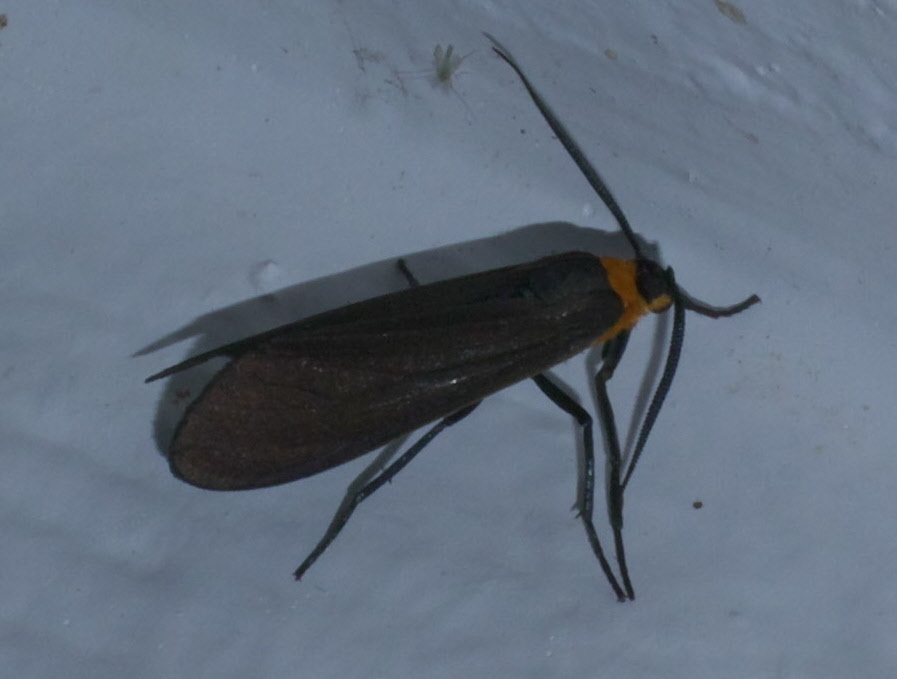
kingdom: Animalia
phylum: Arthropoda
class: Insecta
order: Lepidoptera
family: Erebidae
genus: Cisseps
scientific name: Cisseps fulvicollis
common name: Yellow-collared scape moth
